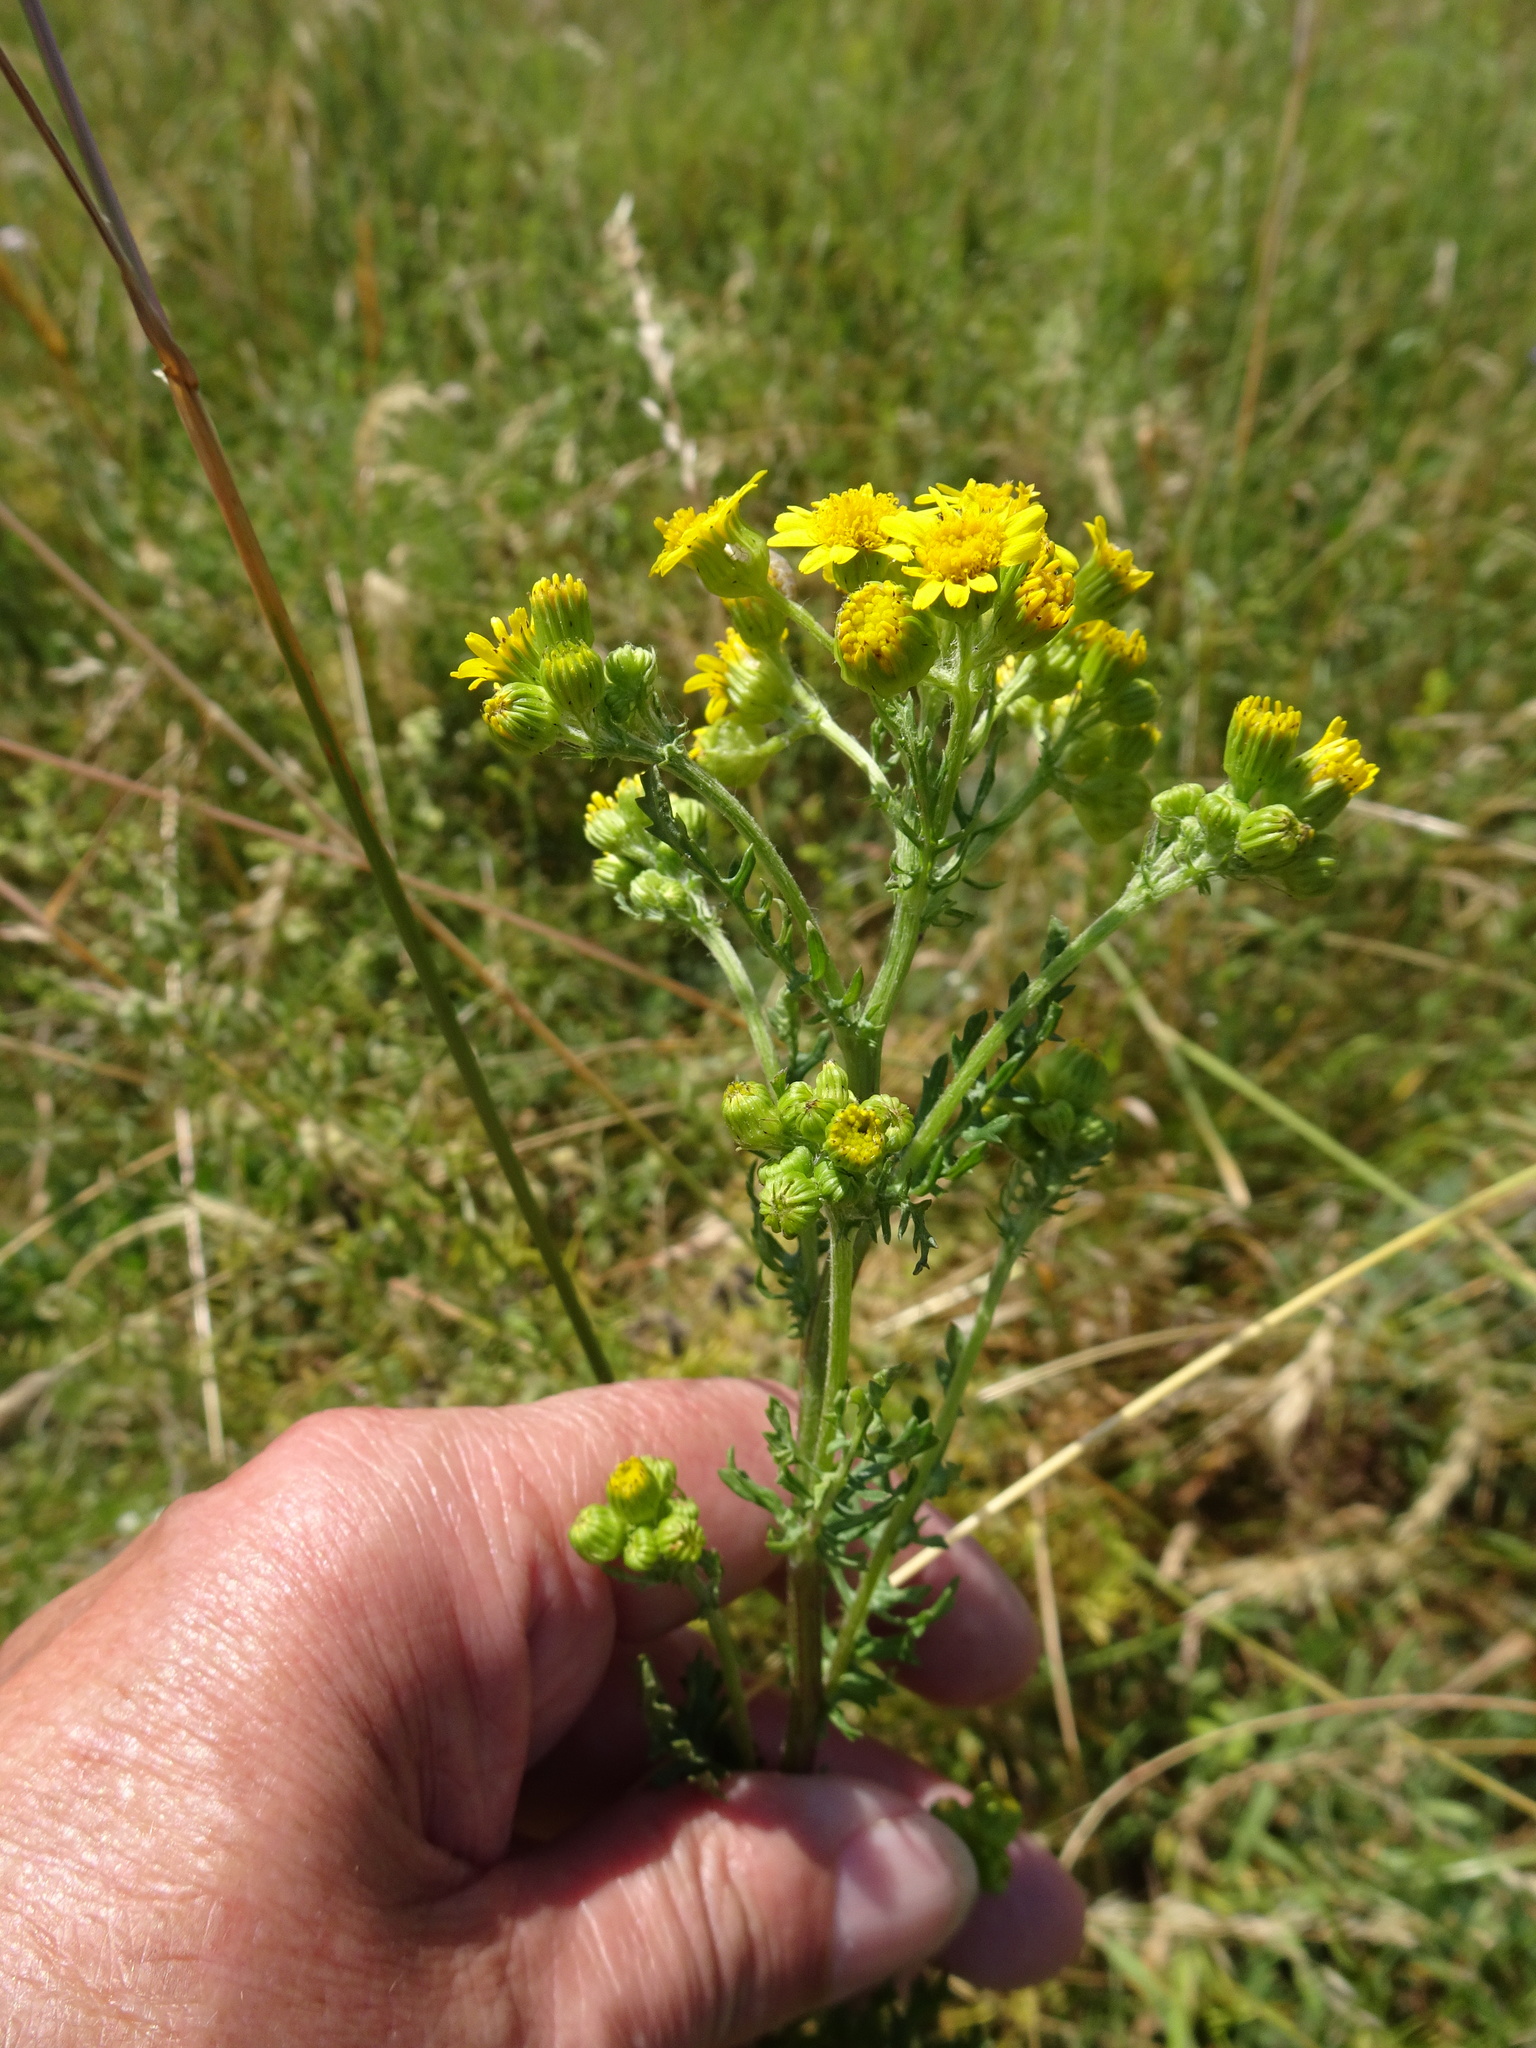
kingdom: Plantae
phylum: Tracheophyta
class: Magnoliopsida
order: Asterales
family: Asteraceae
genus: Jacobaea
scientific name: Jacobaea vulgaris
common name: Stinking willie
